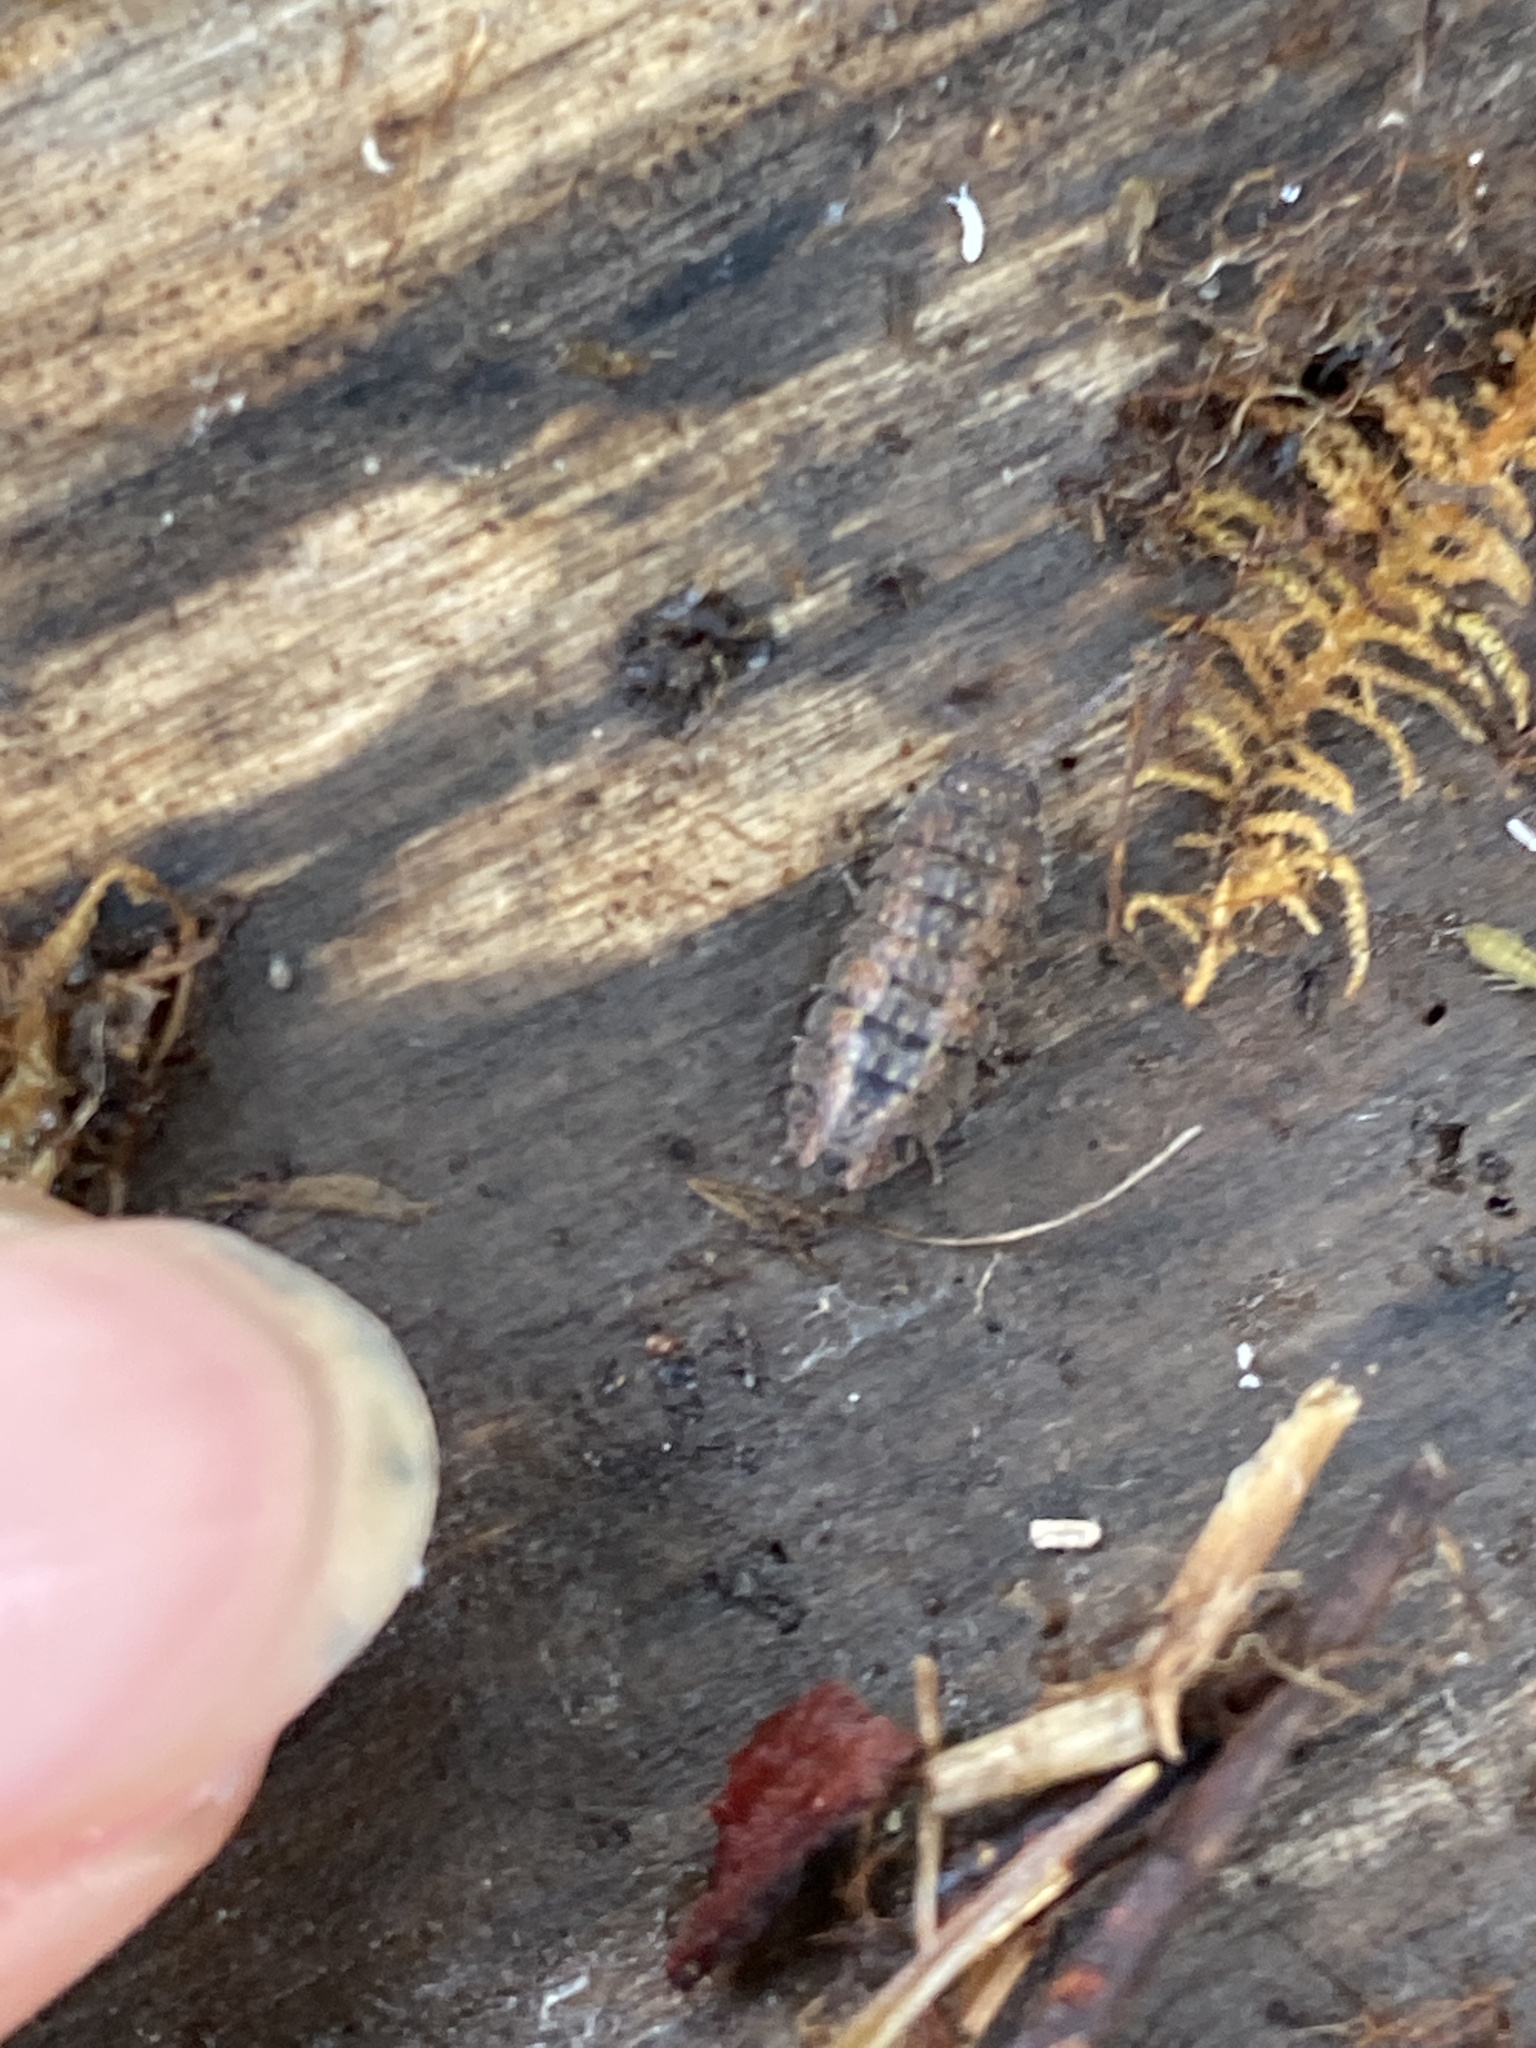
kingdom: Animalia
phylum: Arthropoda
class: Malacostraca
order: Isopoda
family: Armadillidae
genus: Cubaris
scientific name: Cubaris tarangensis
